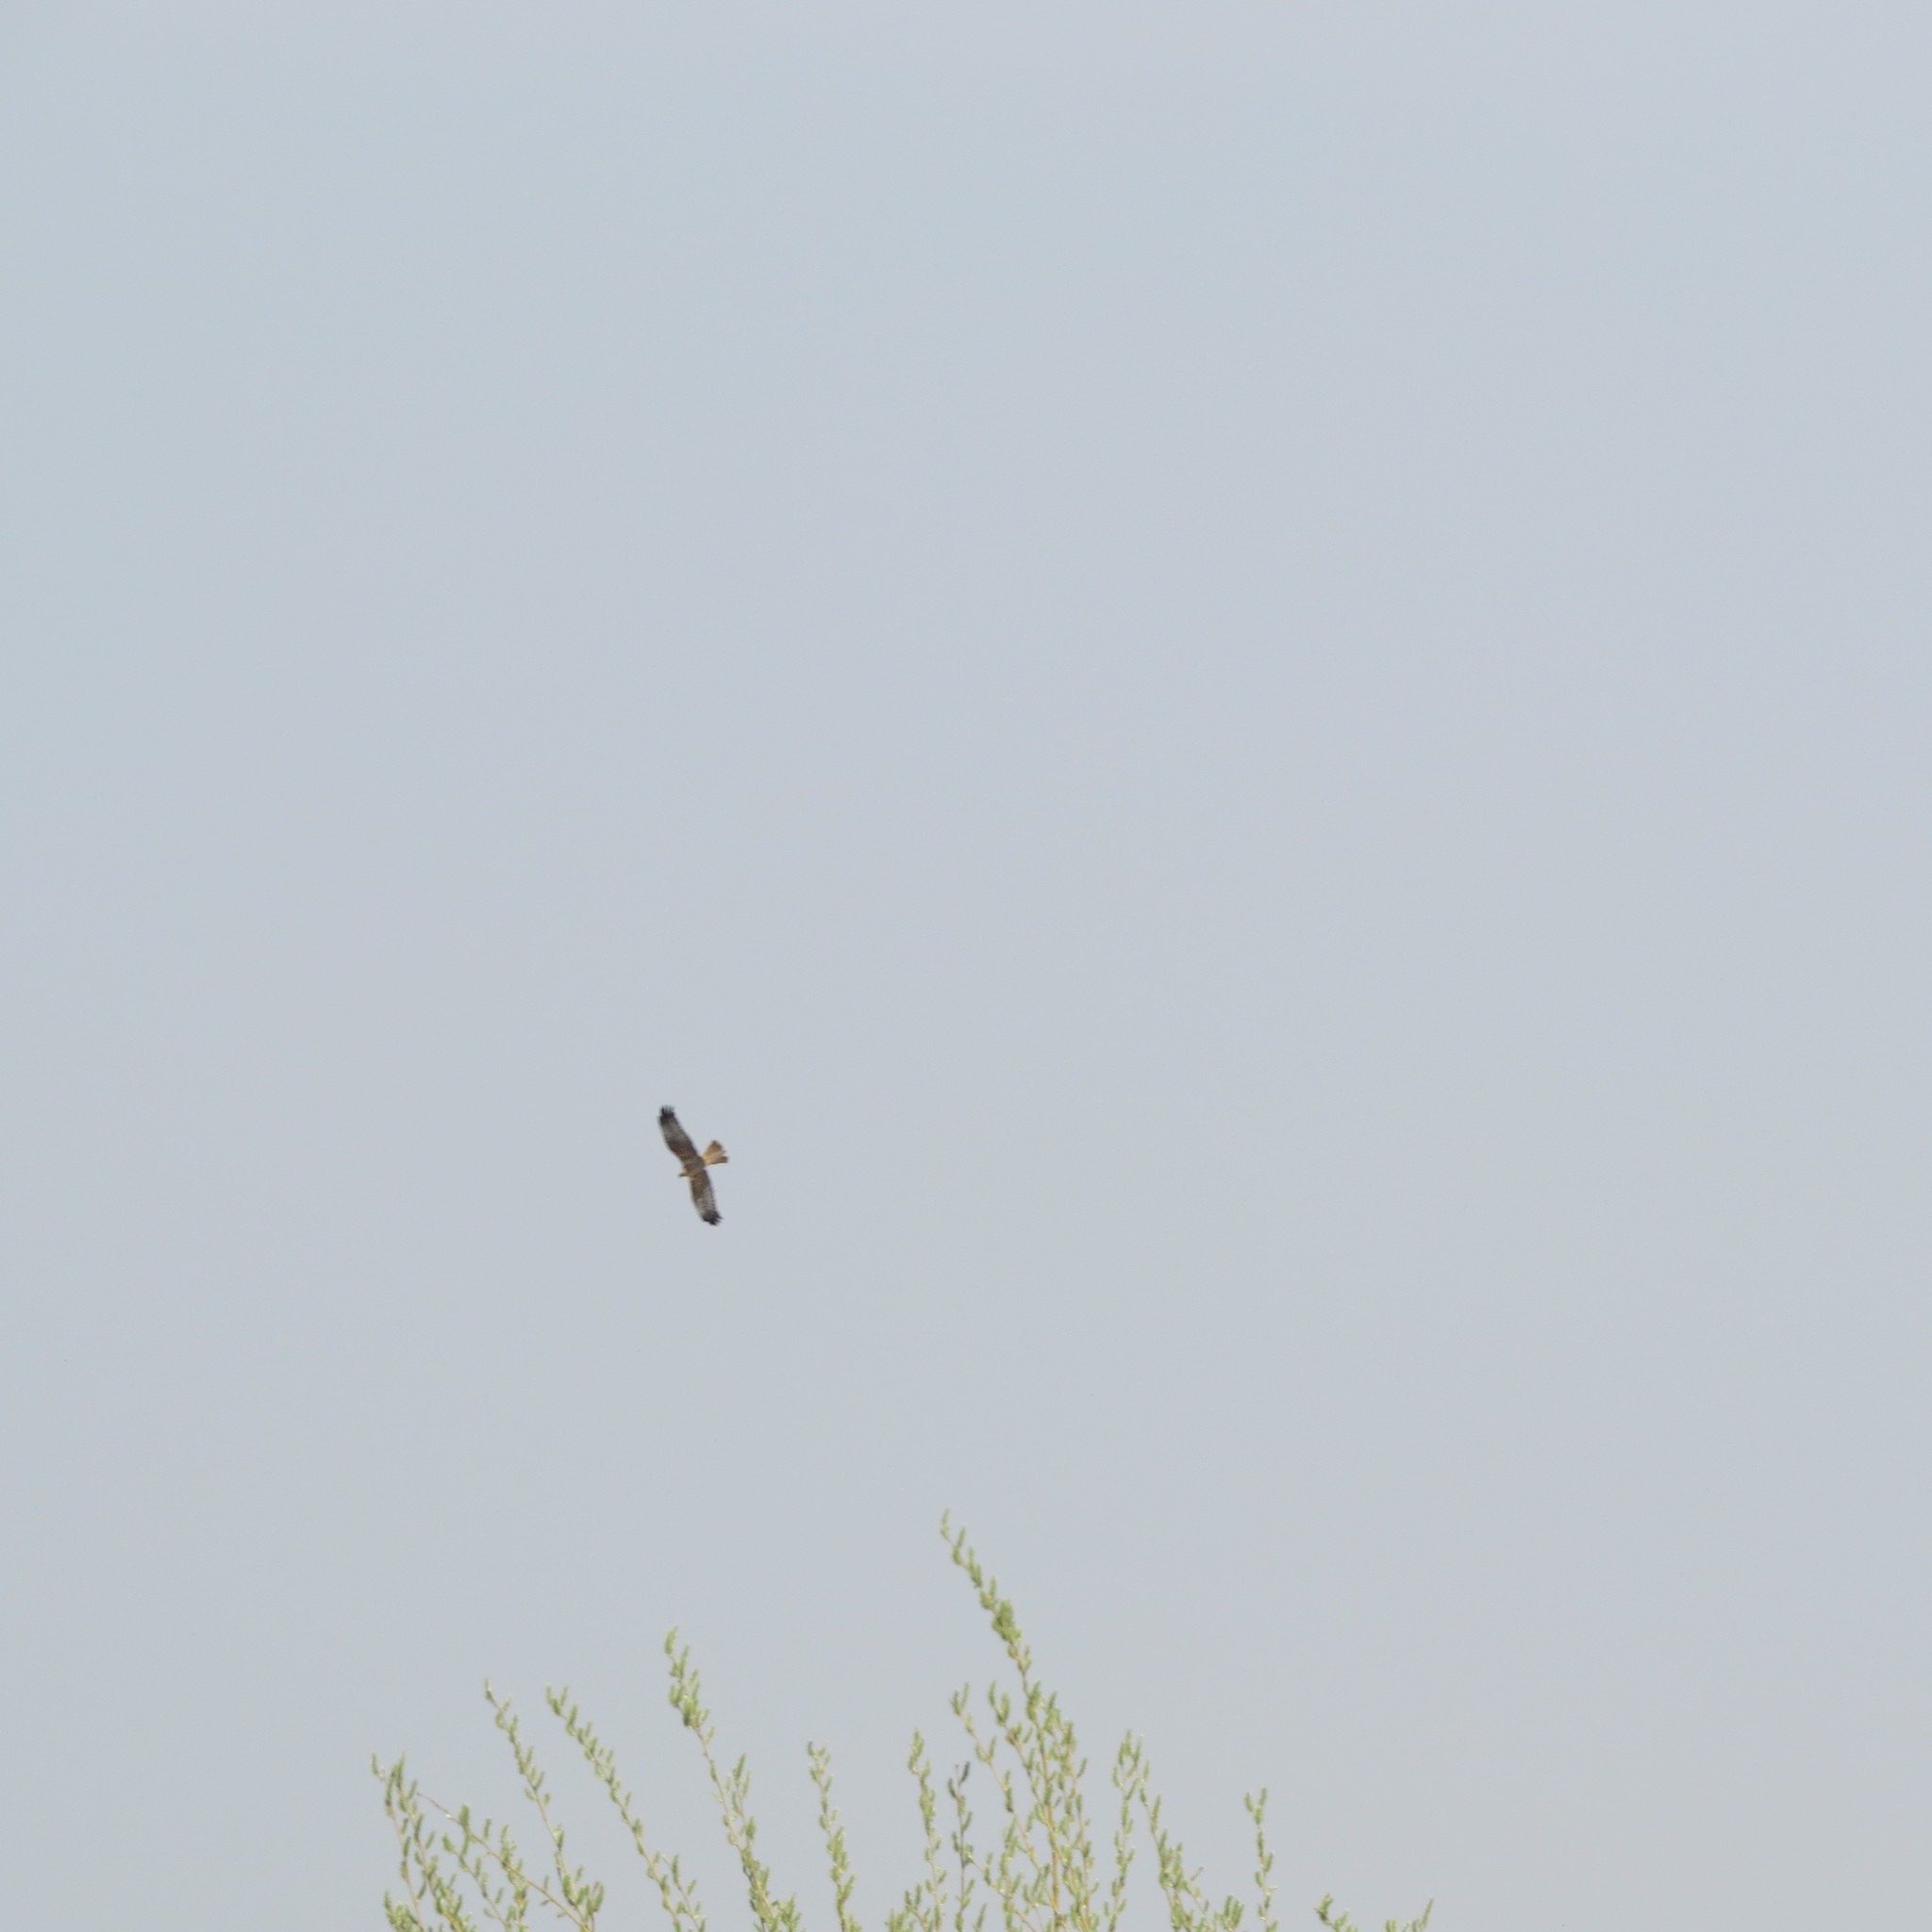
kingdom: Animalia
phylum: Chordata
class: Aves
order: Accipitriformes
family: Accipitridae
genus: Circus
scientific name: Circus aeruginosus
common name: Western marsh harrier
